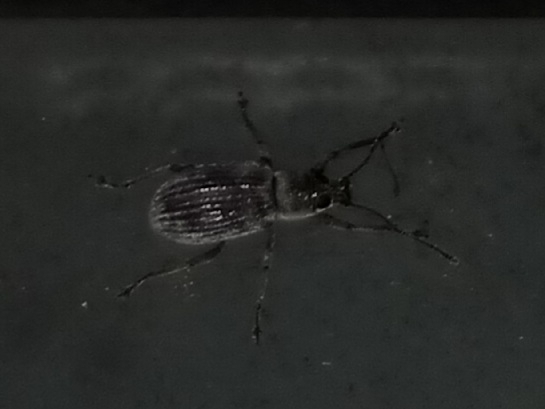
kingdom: Animalia
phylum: Arthropoda
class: Insecta
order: Coleoptera
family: Curculionidae
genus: Cyrtepistomus
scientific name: Cyrtepistomus castaneus
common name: Weevil
